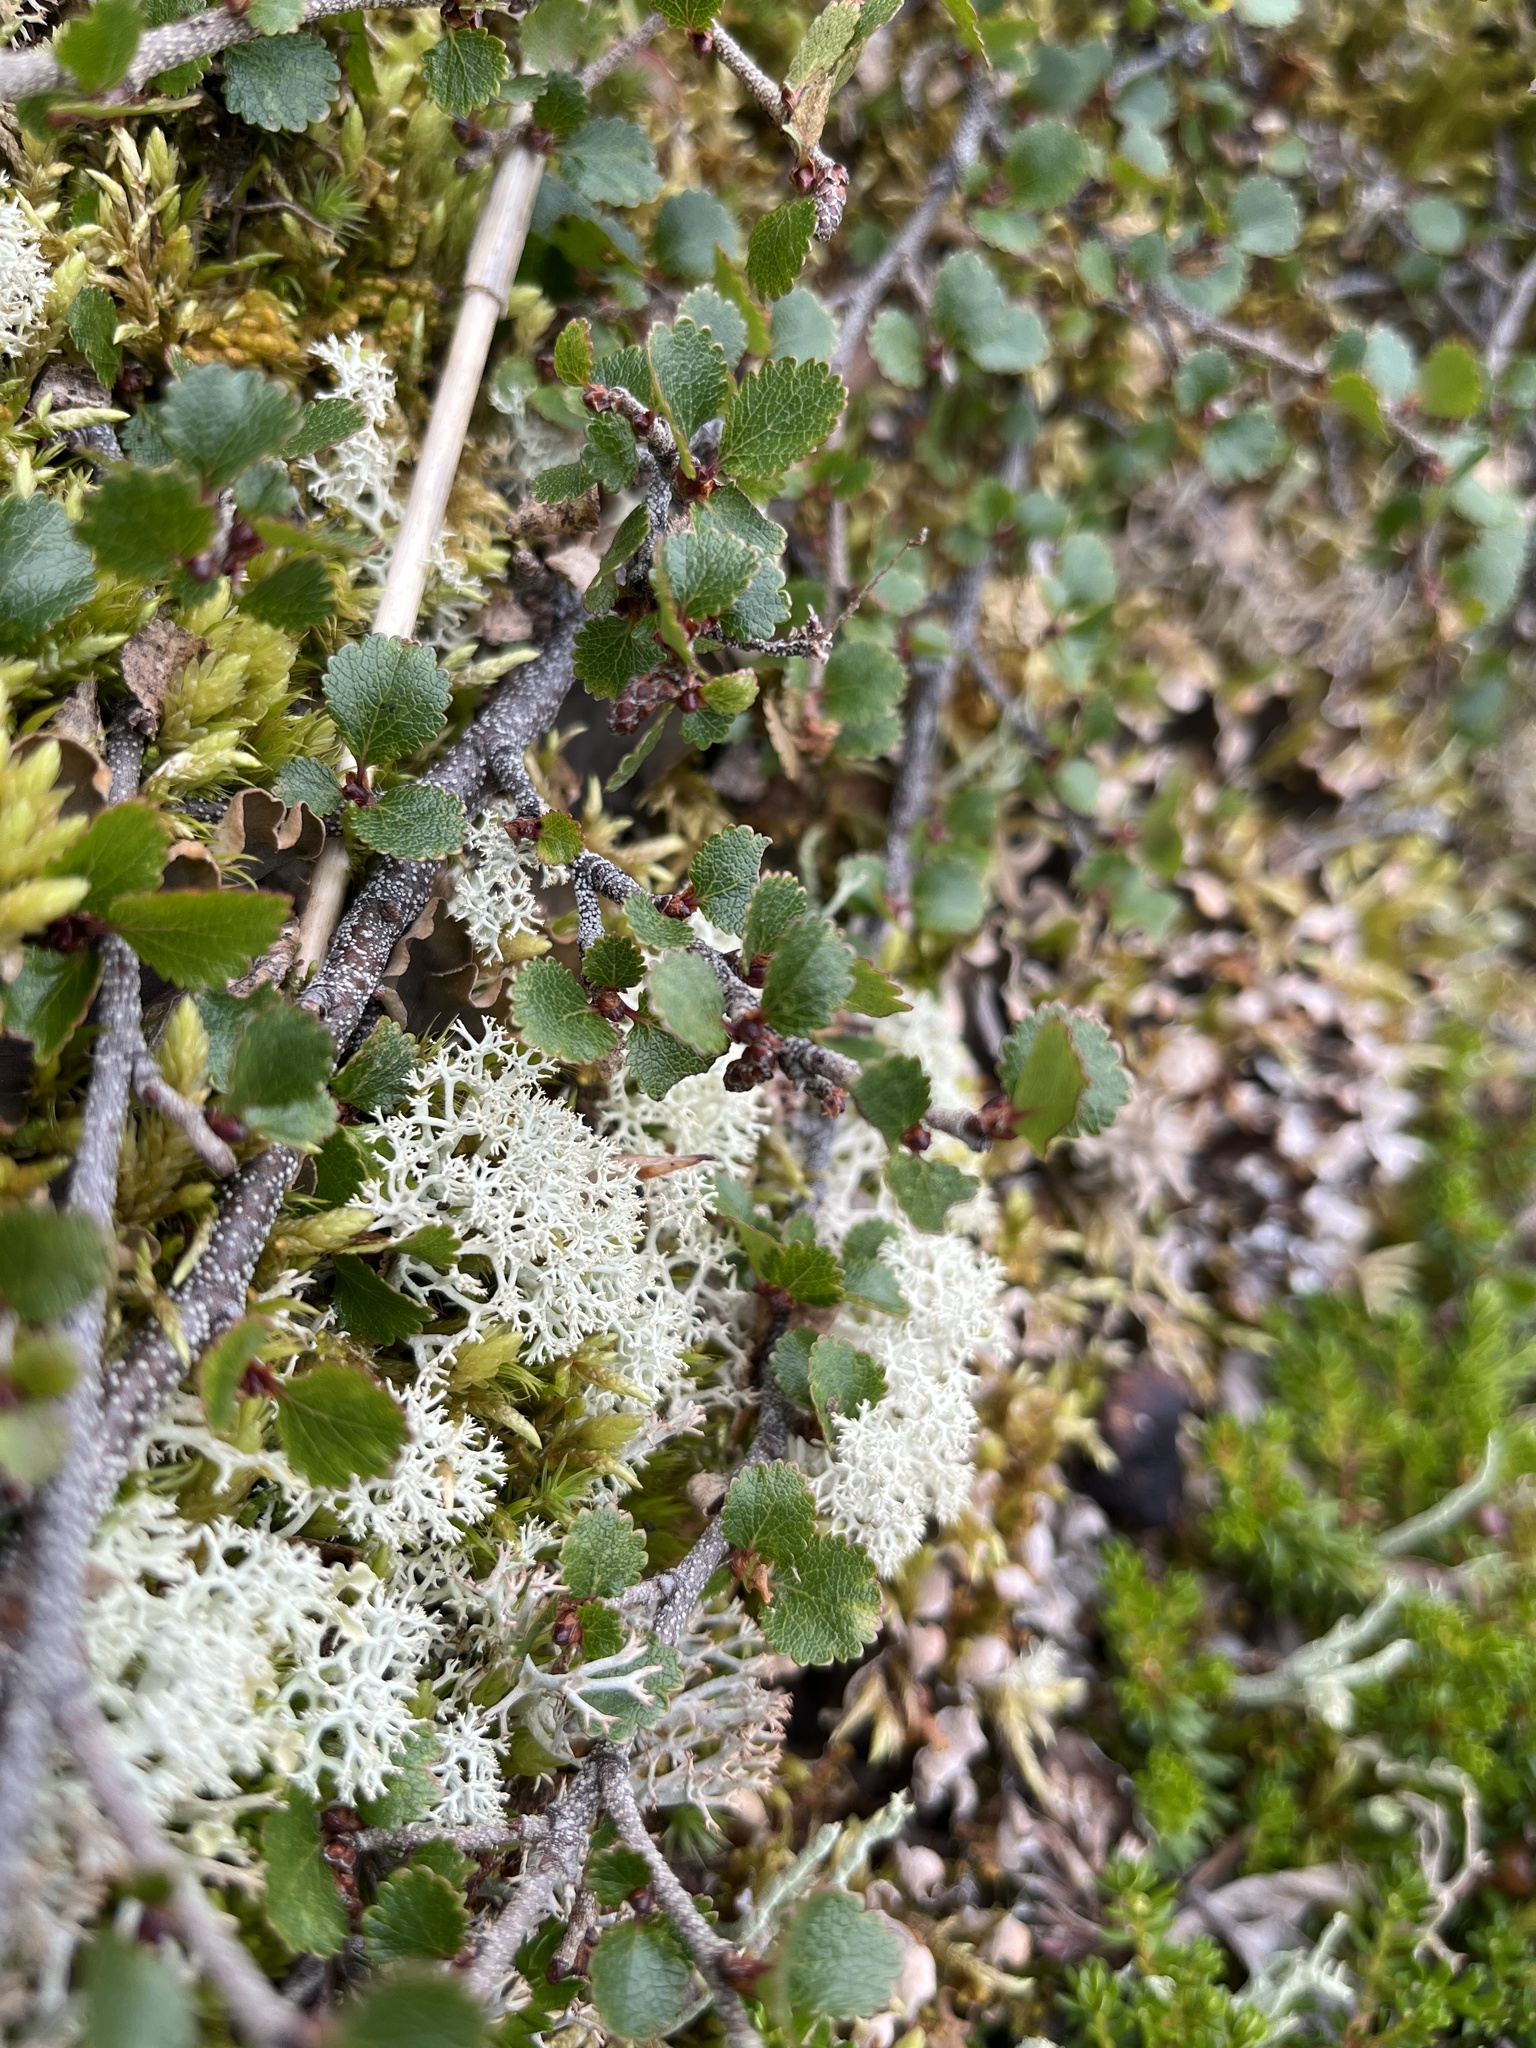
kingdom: Plantae
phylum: Tracheophyta
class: Magnoliopsida
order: Fagales
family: Betulaceae
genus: Betula
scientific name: Betula glandulosa
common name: Dwarf birch
